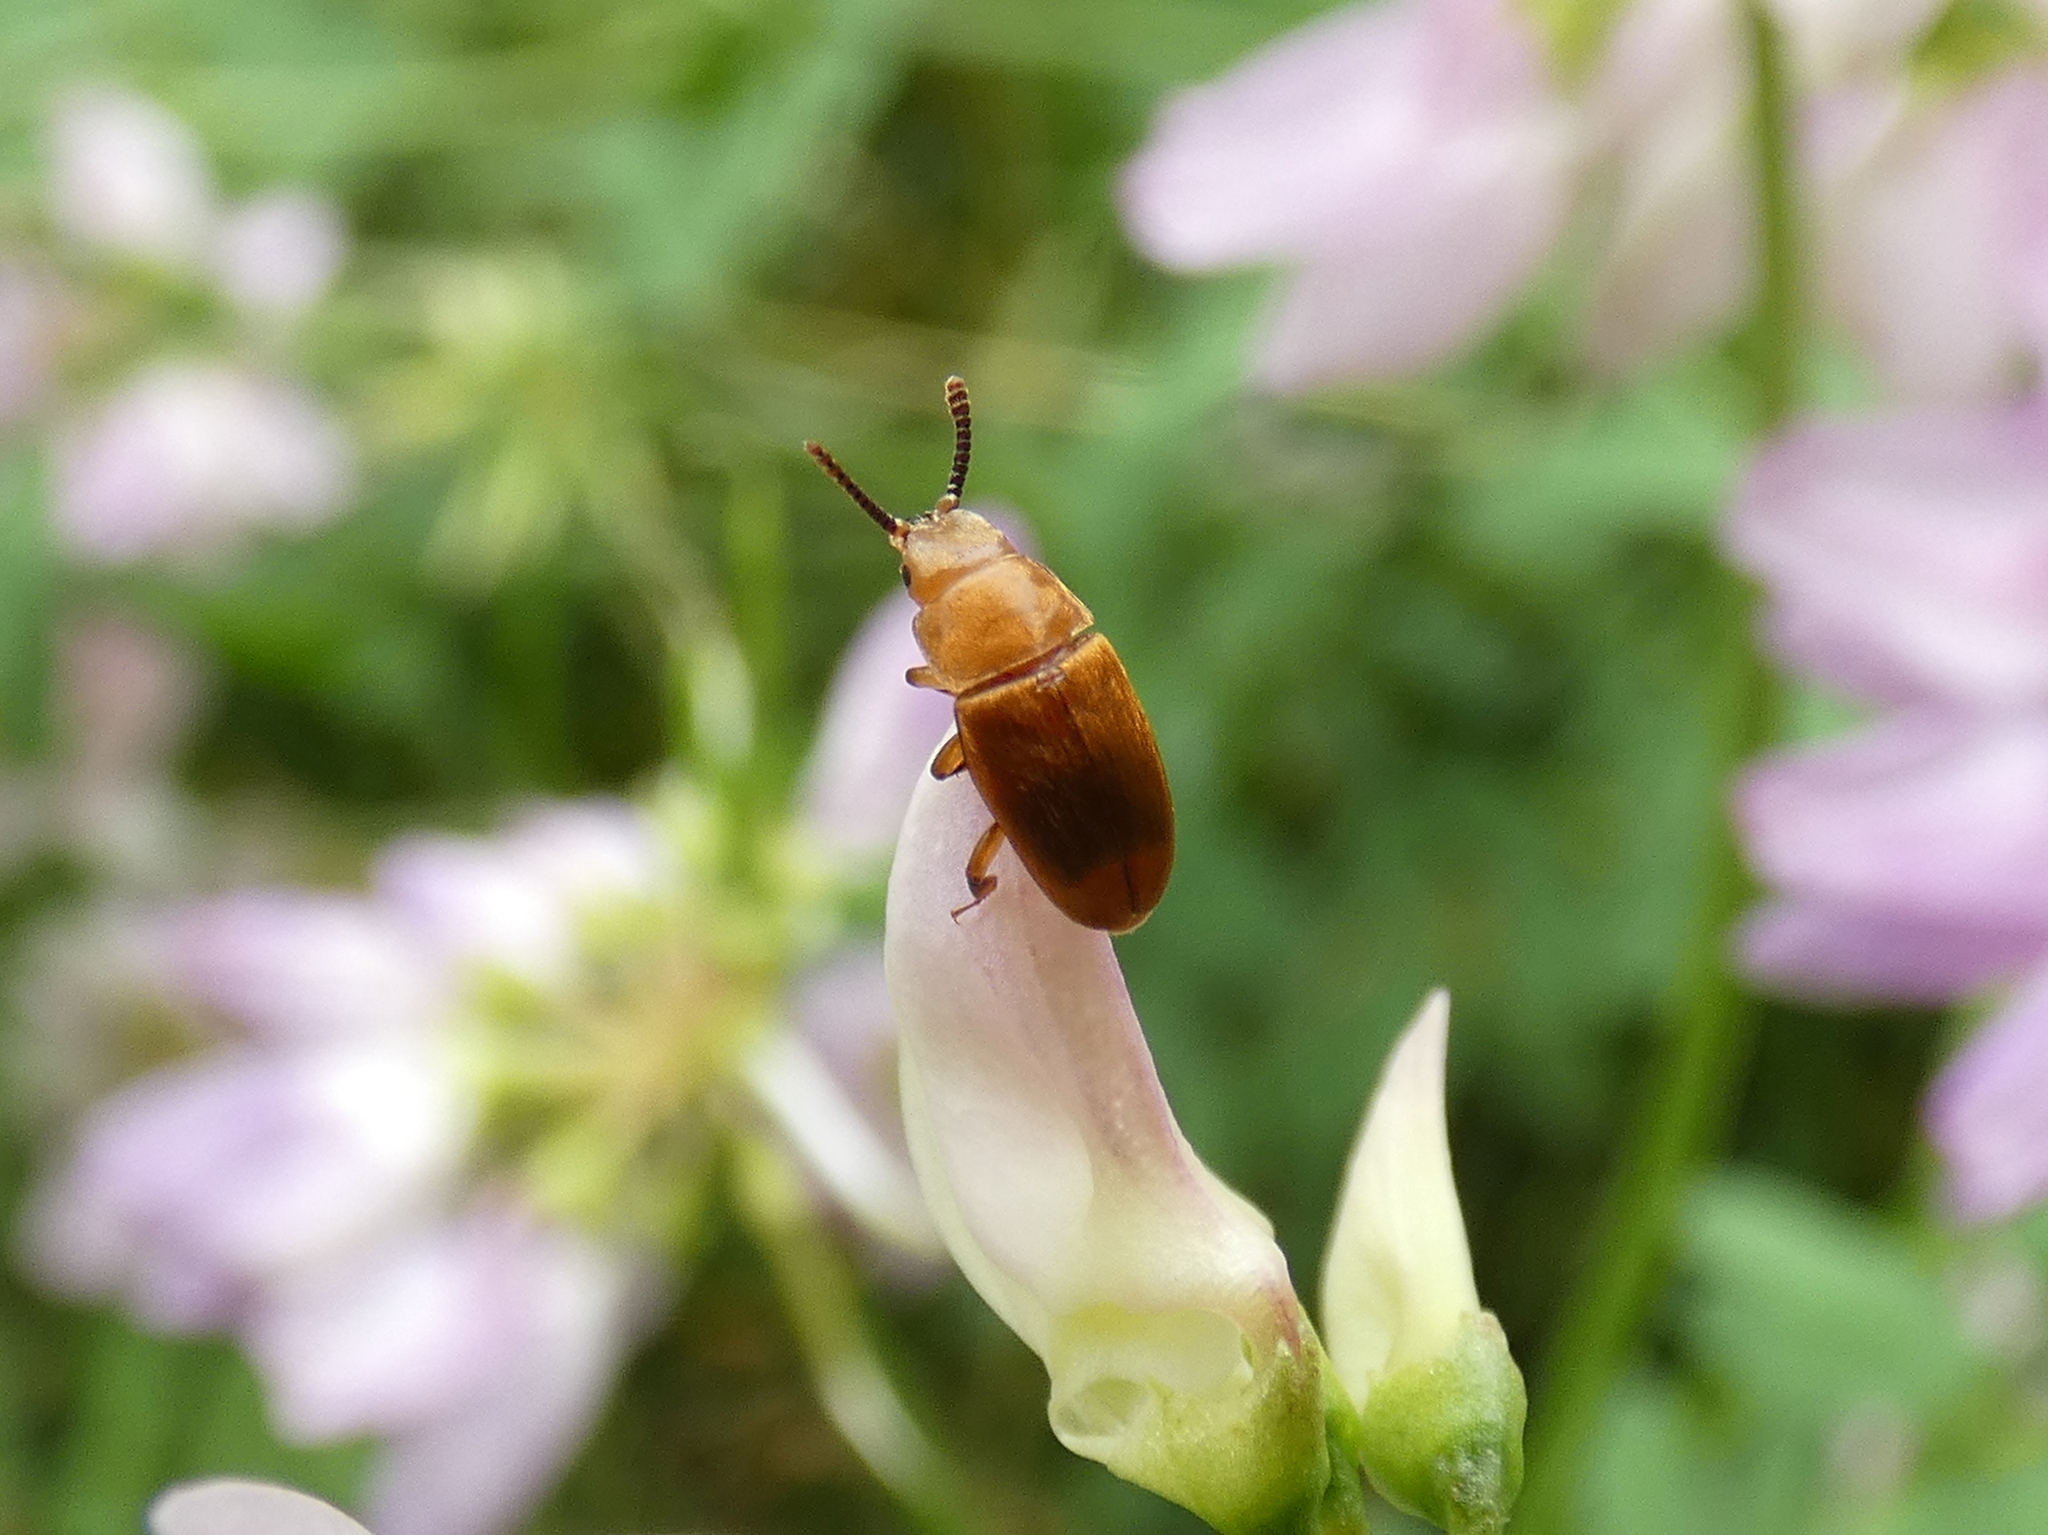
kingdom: Animalia
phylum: Arthropoda
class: Insecta
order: Coleoptera
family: Cryptophagidae
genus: Antherophagus
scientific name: Antherophagus ochraceus
